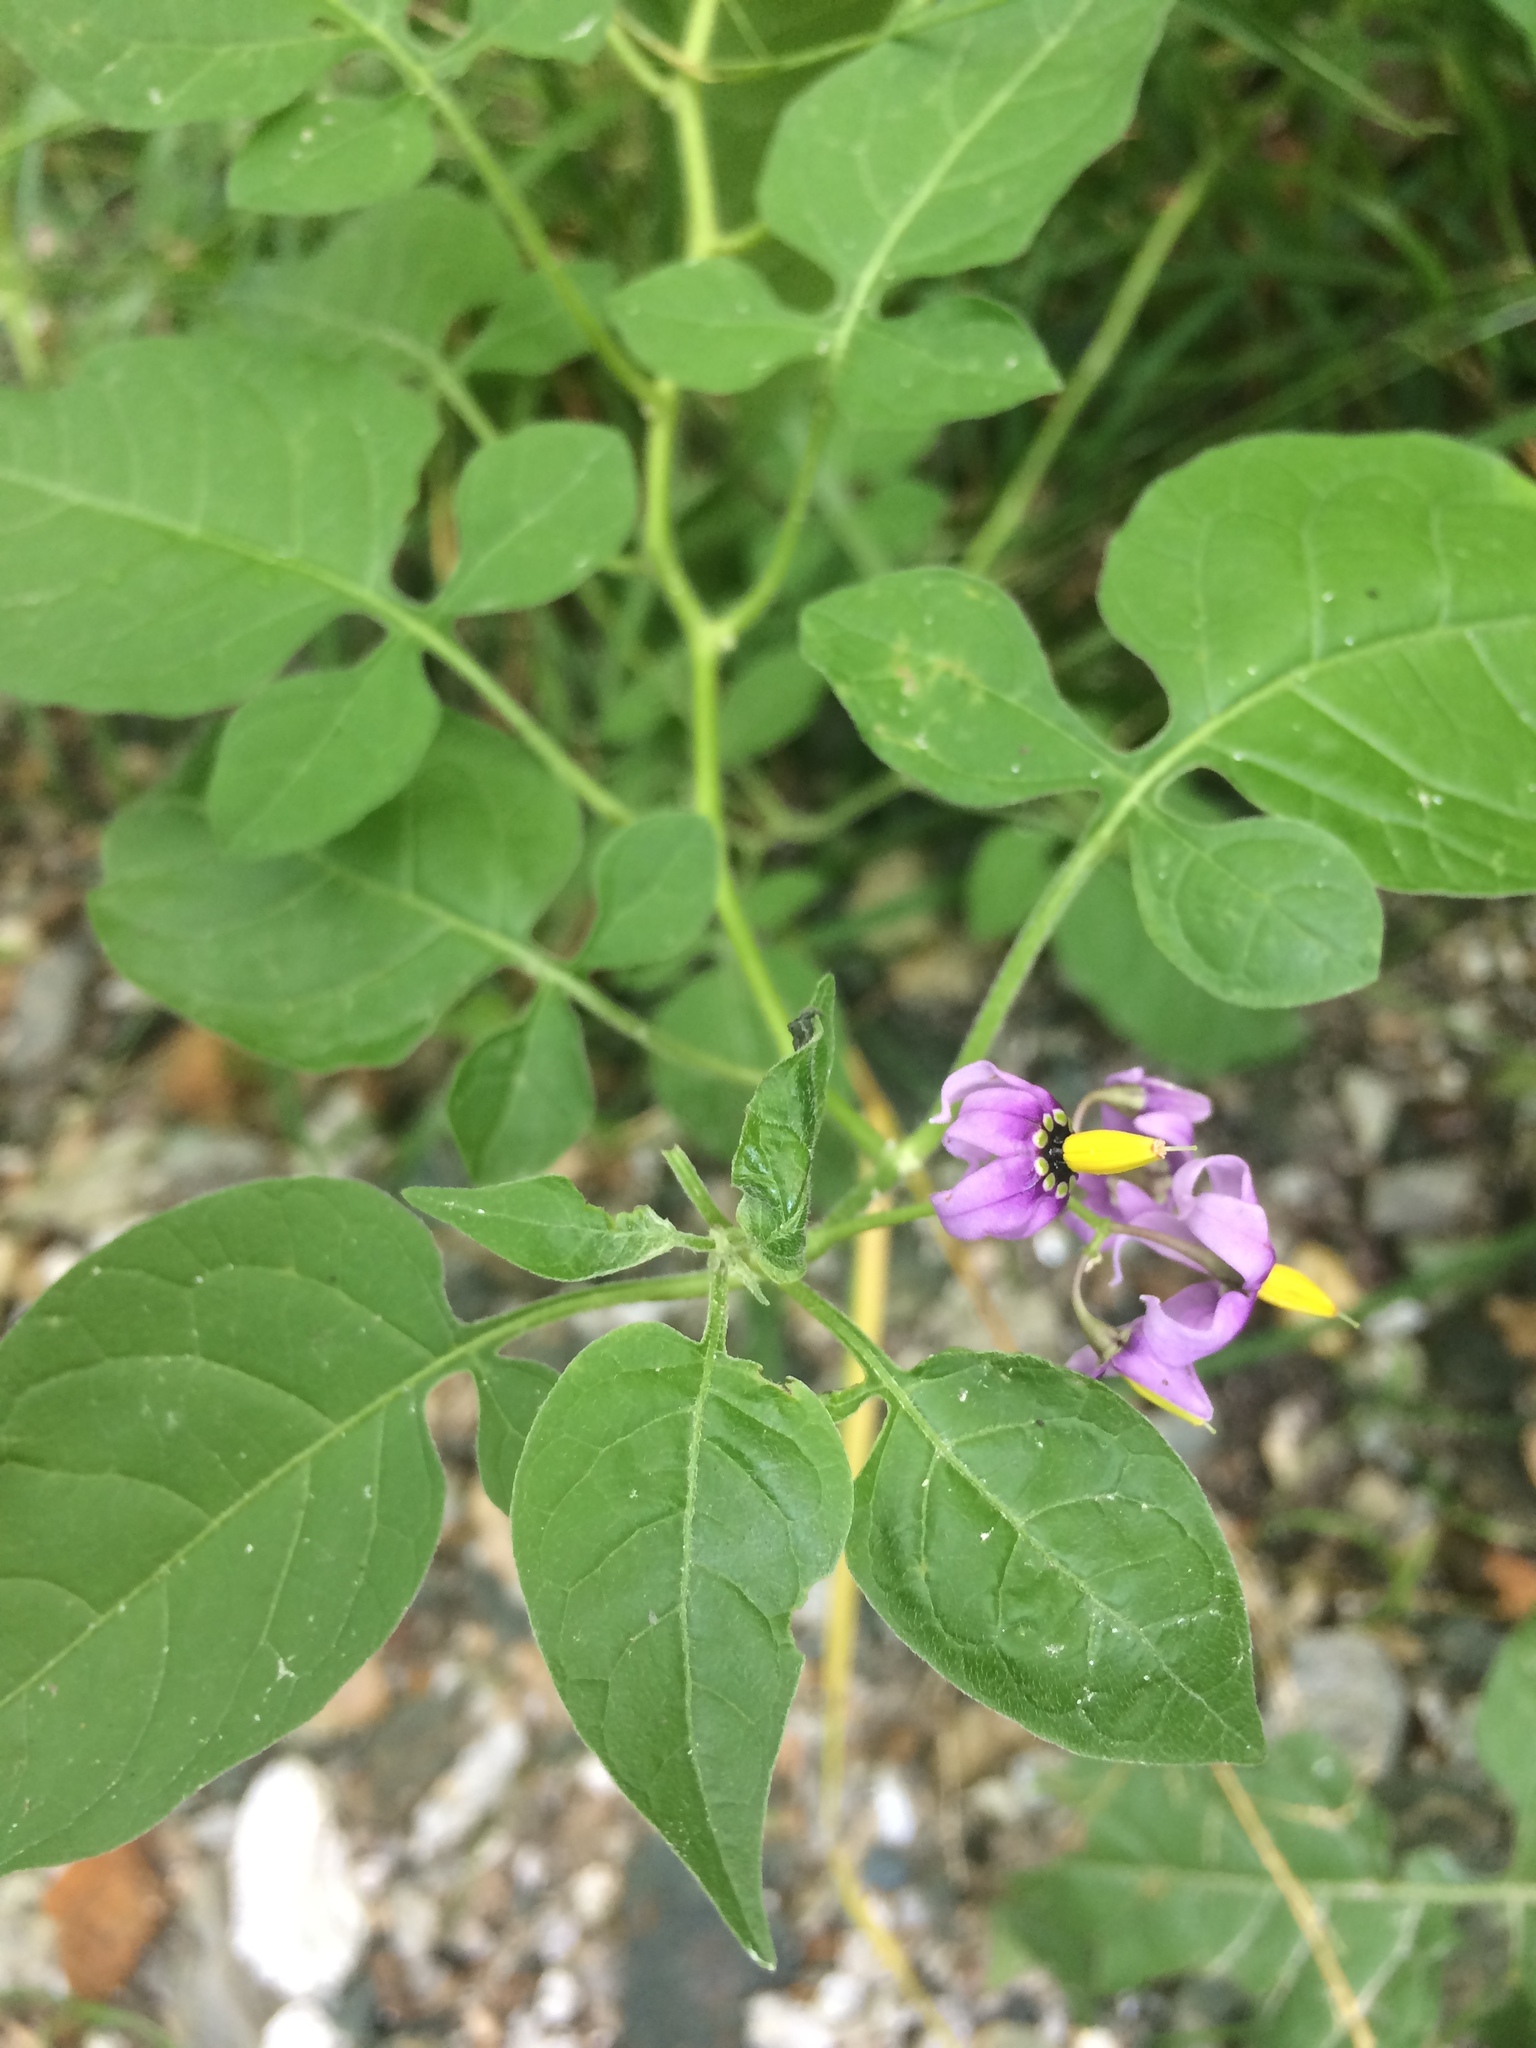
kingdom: Plantae
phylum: Tracheophyta
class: Magnoliopsida
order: Solanales
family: Solanaceae
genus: Solanum
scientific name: Solanum dulcamara
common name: Climbing nightshade
